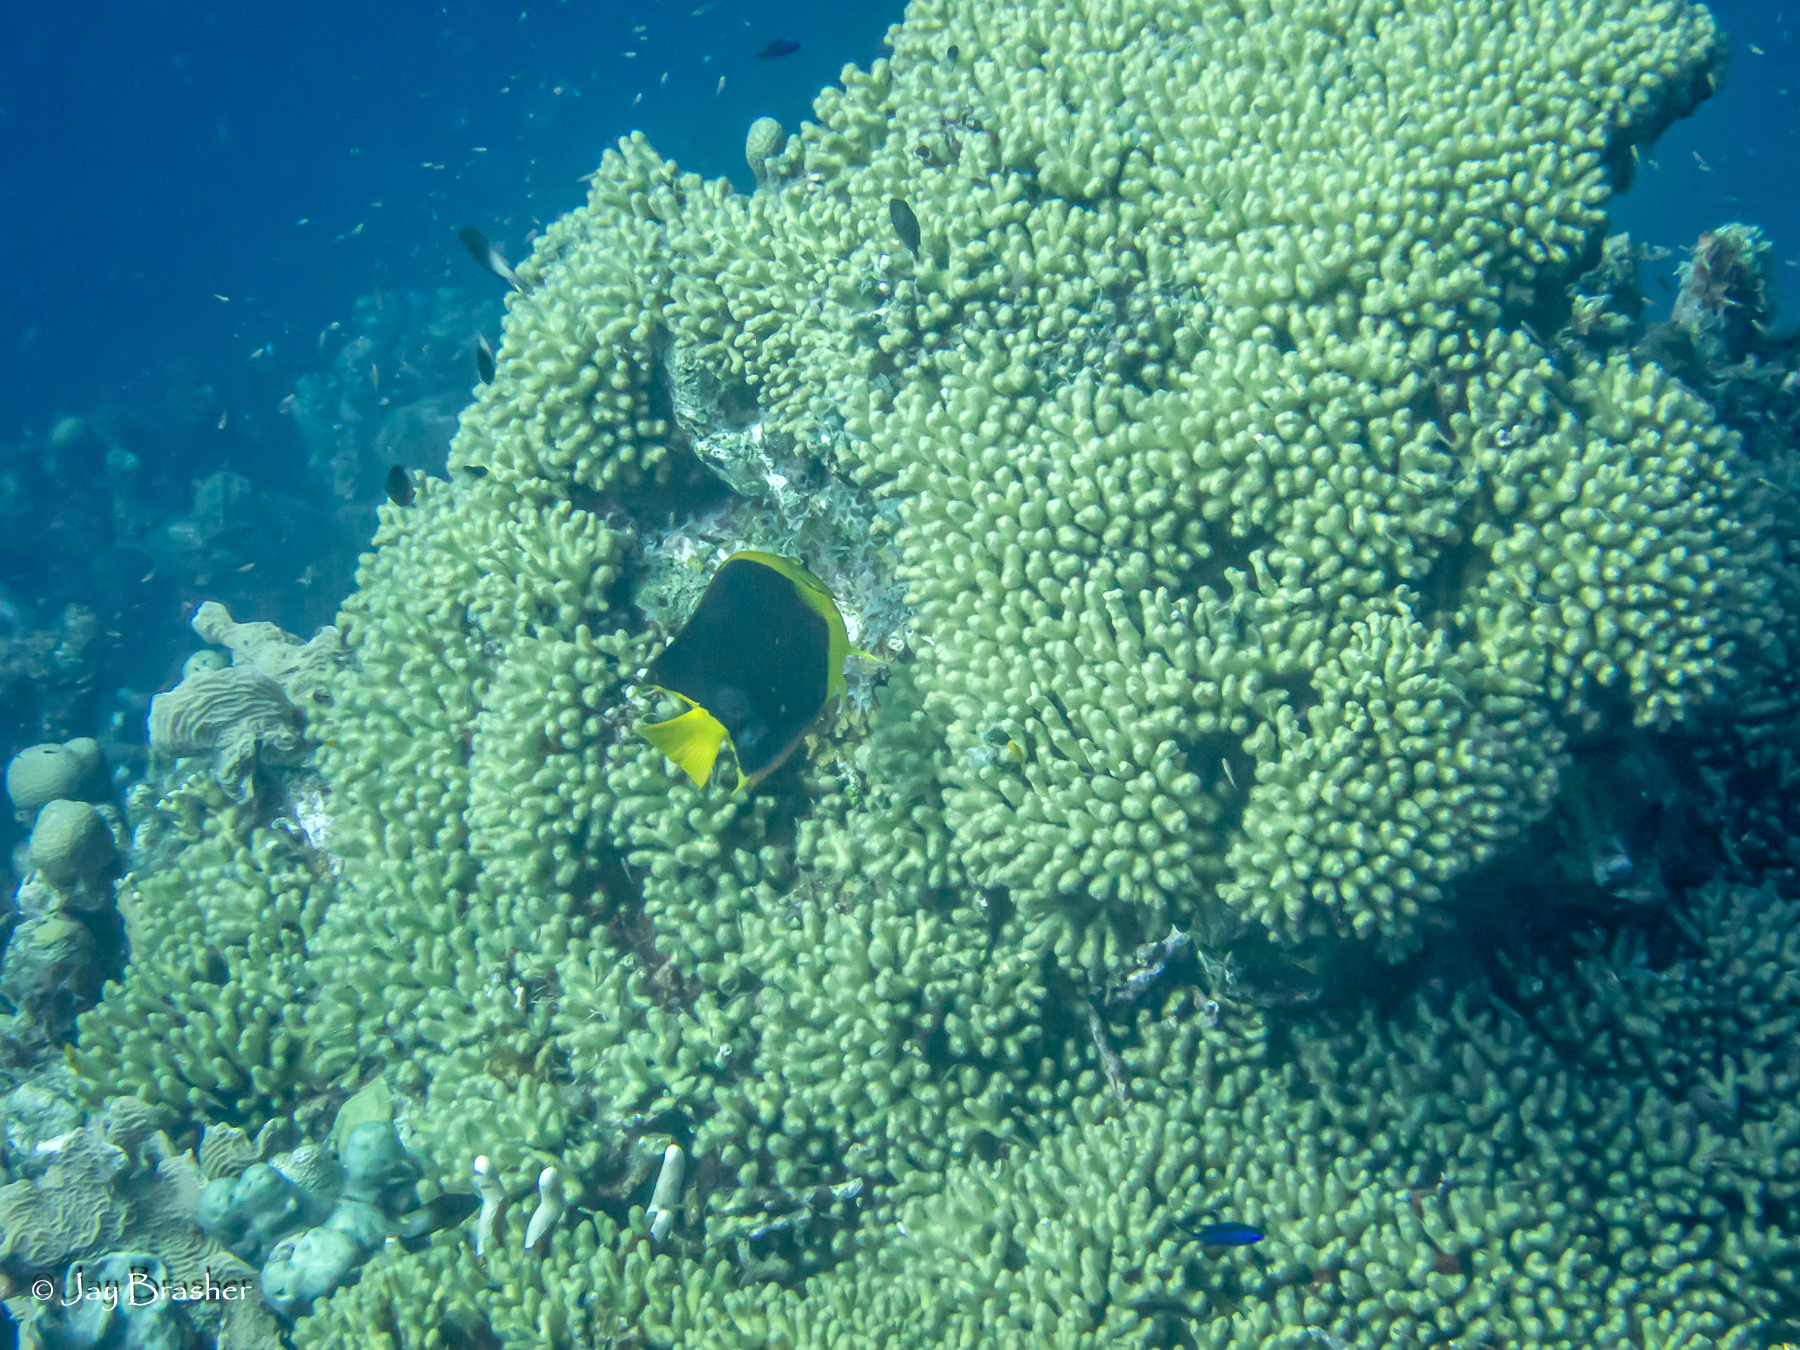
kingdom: Animalia
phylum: Cnidaria
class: Anthozoa
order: Scleractinia
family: Pocilloporidae
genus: Madracis
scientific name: Madracis auretenra
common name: Yellow pencil coral
